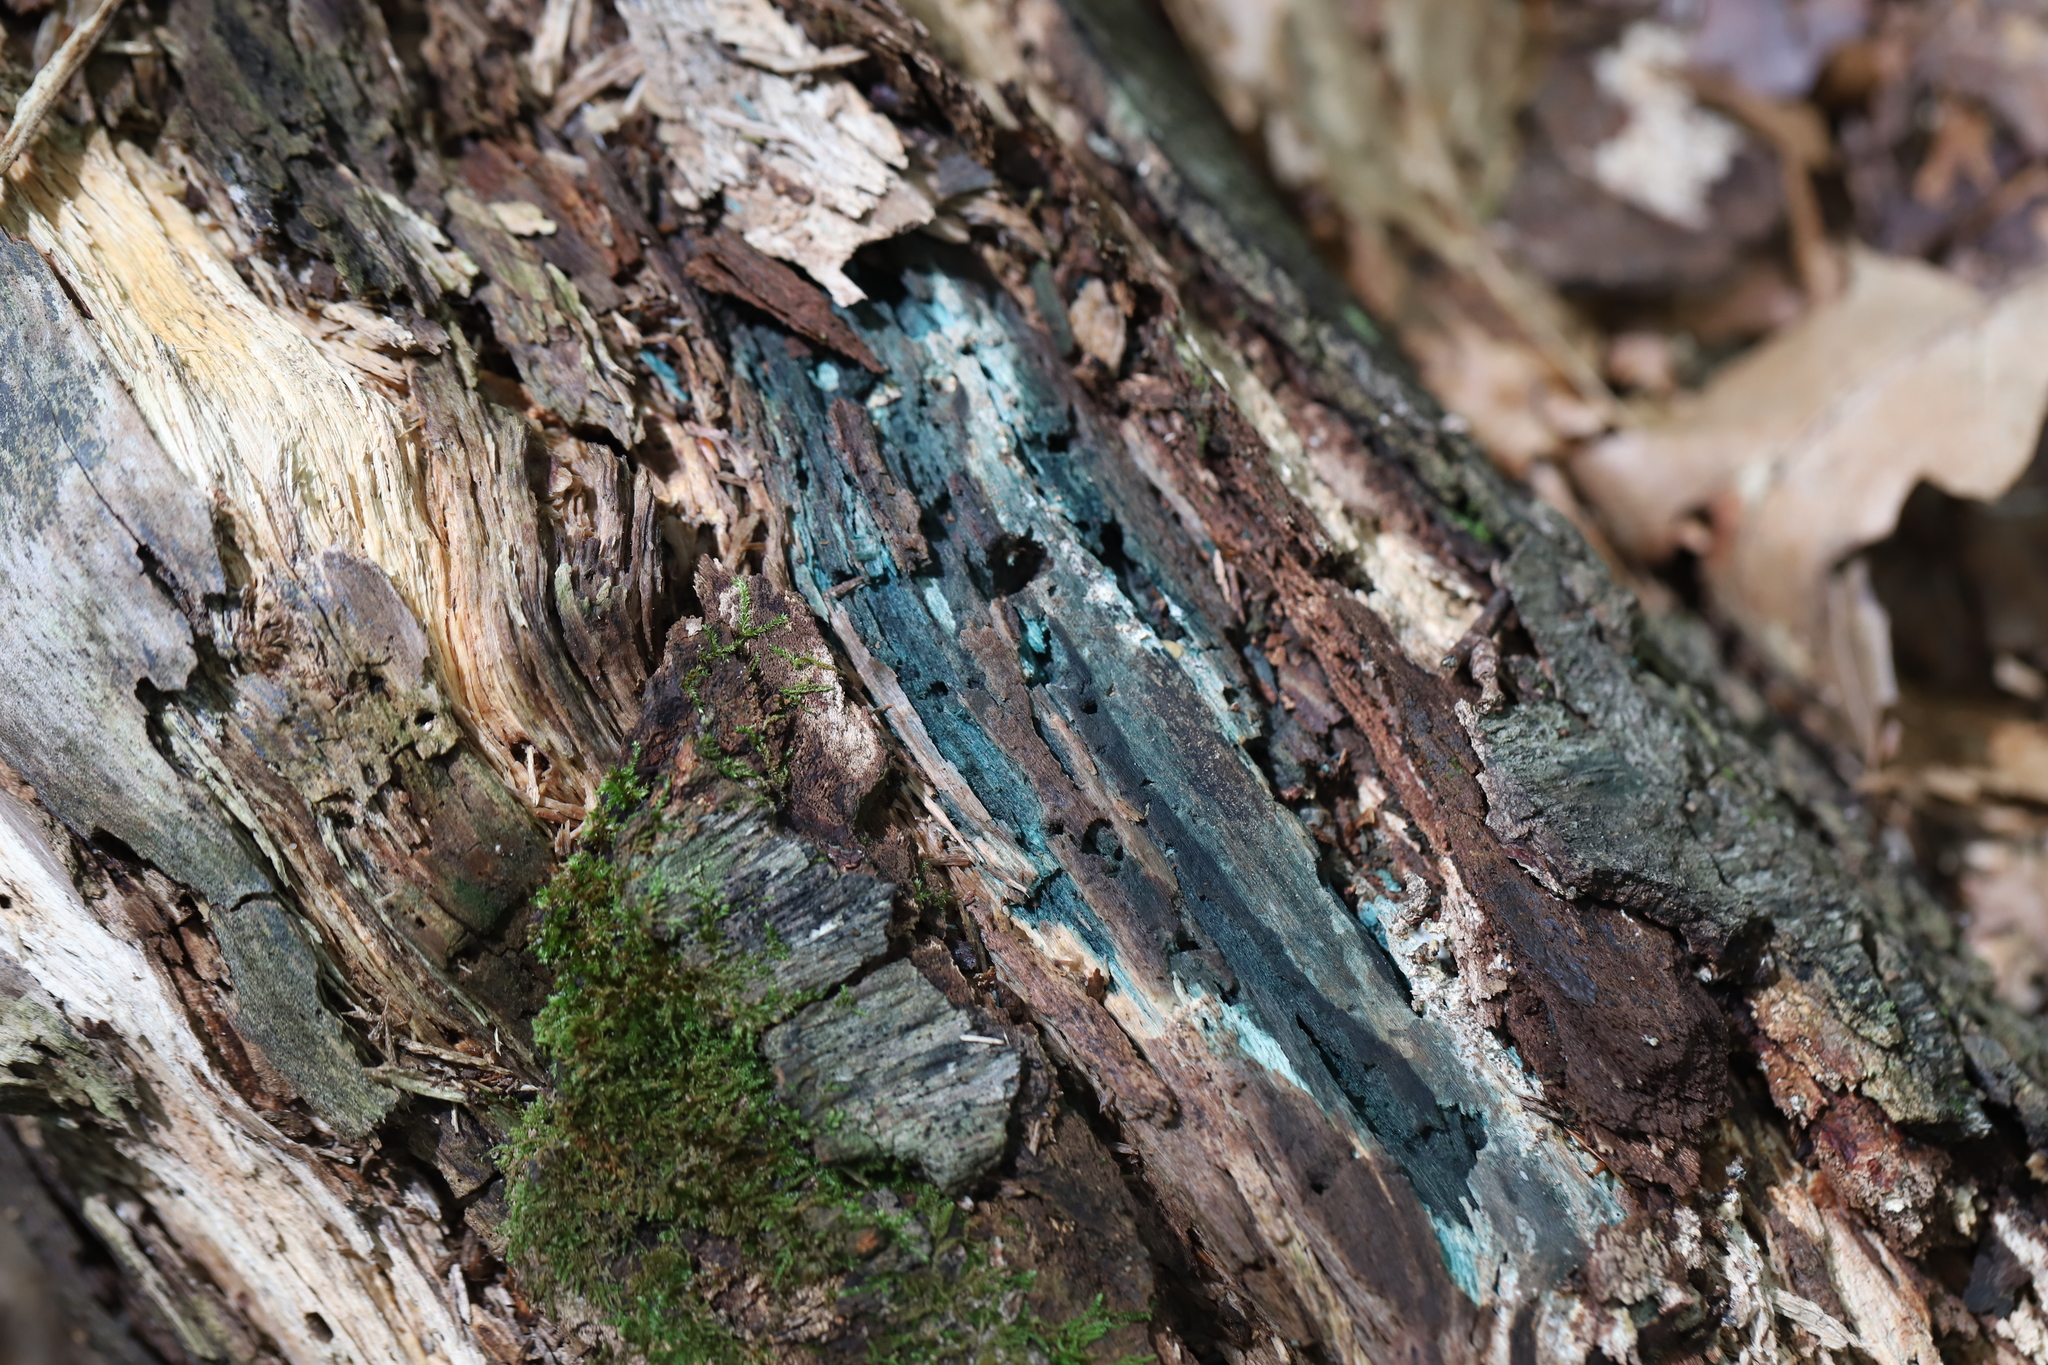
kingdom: Fungi
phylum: Ascomycota
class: Leotiomycetes
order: Helotiales
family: Chlorociboriaceae
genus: Chlorociboria
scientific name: Chlorociboria
